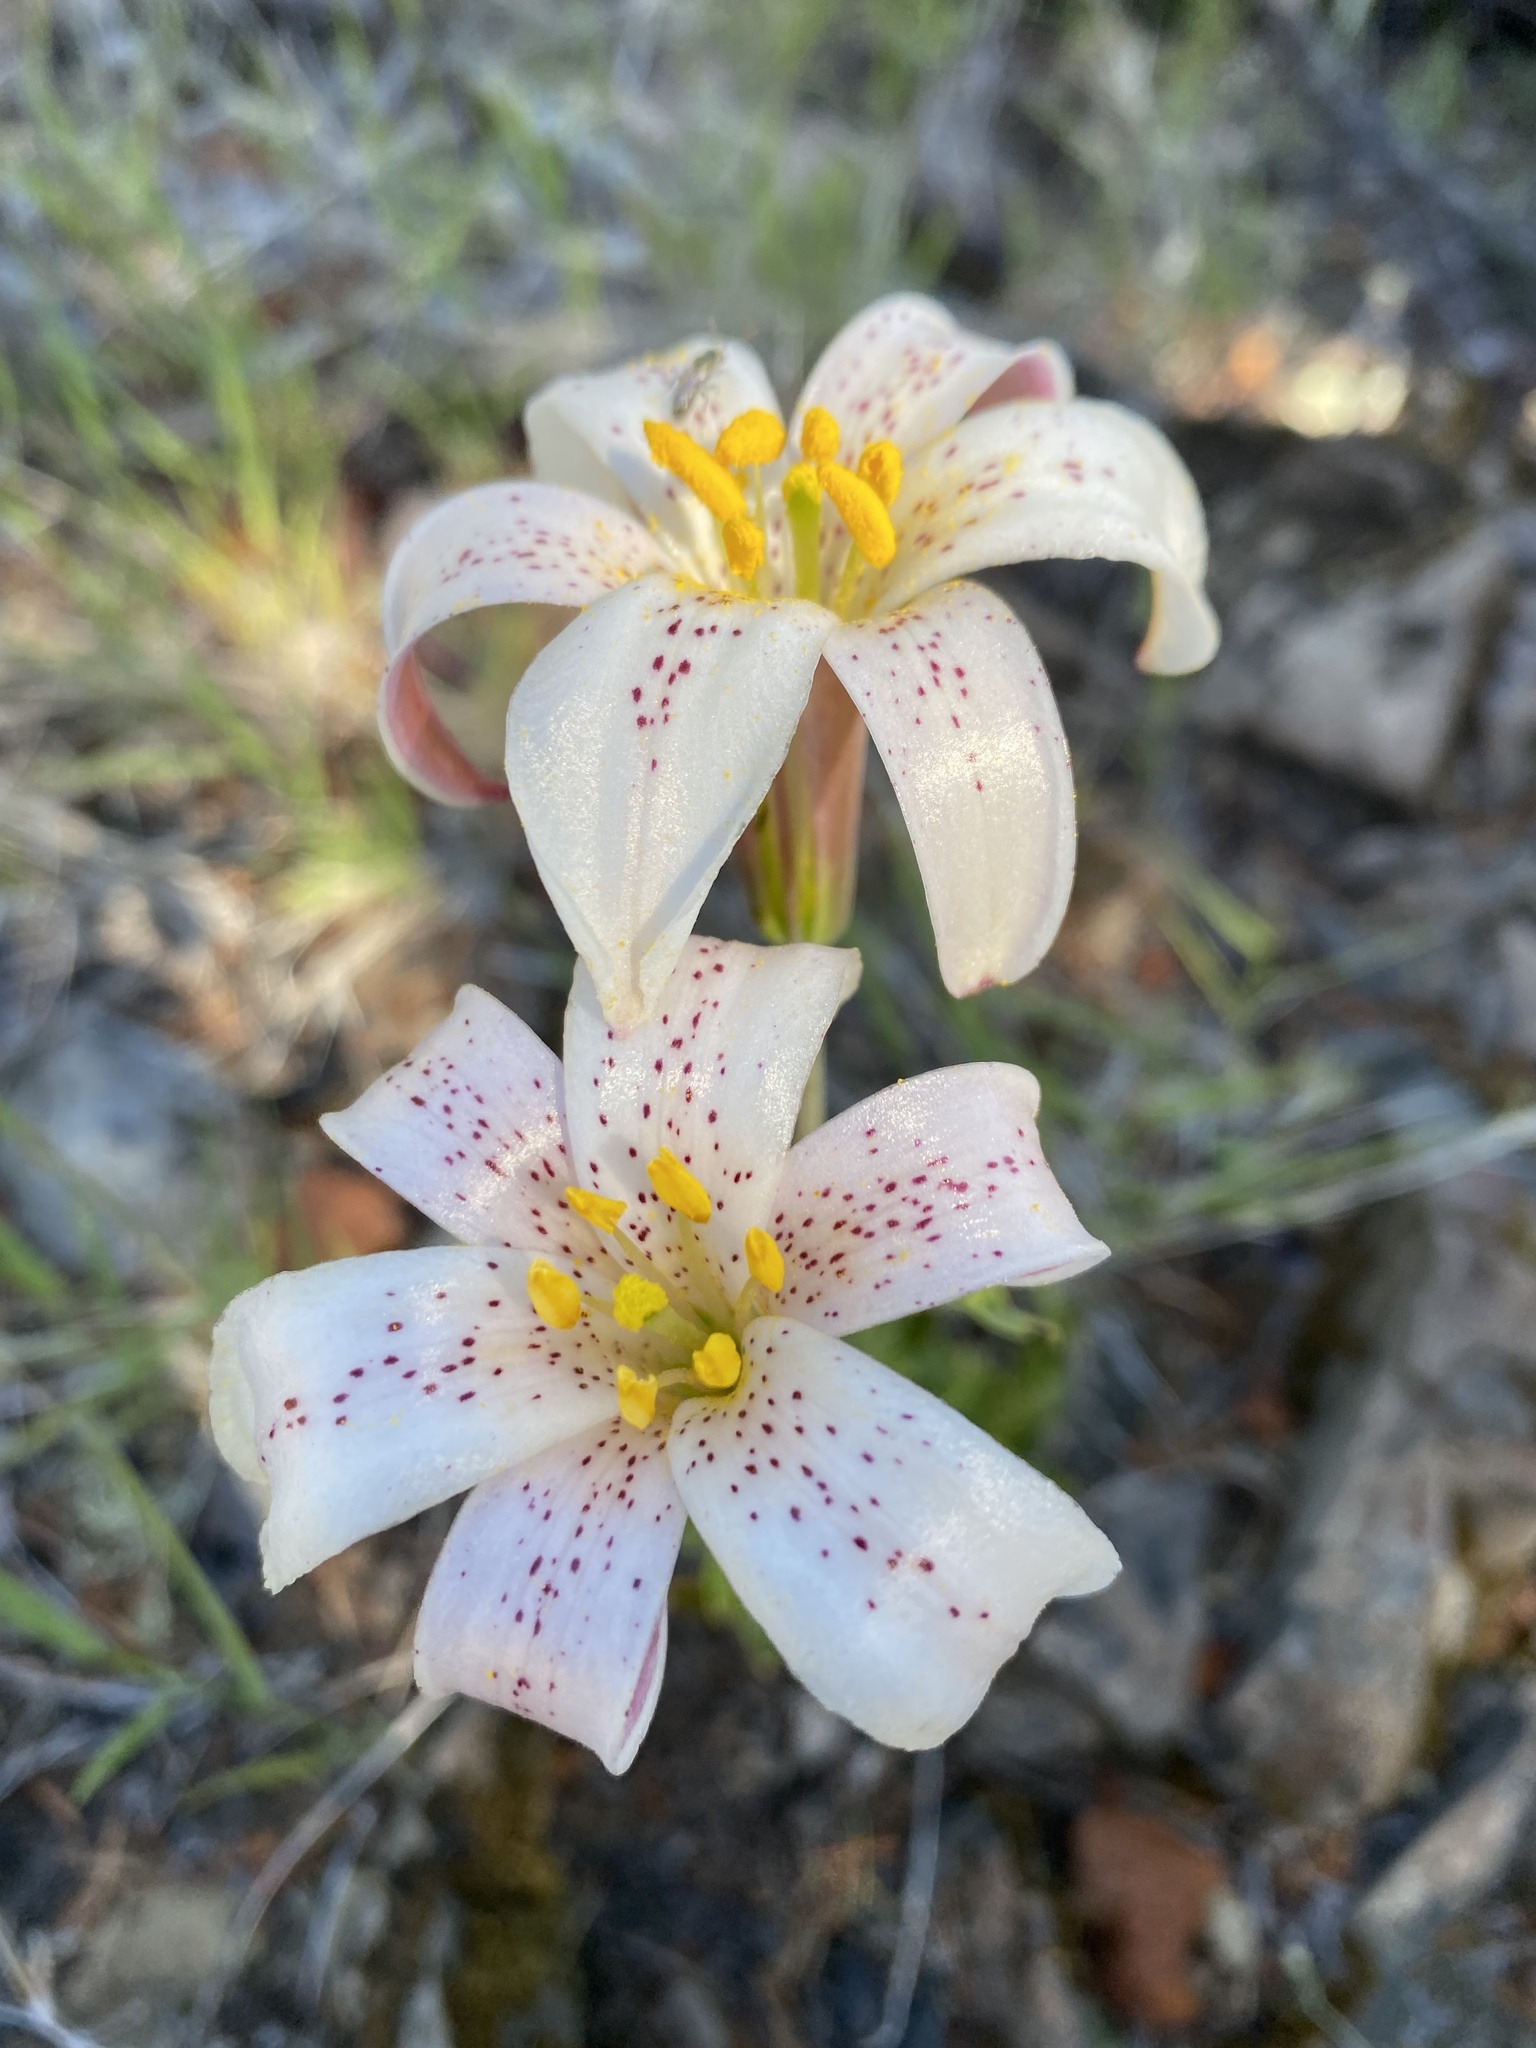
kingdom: Plantae
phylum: Tracheophyta
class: Liliopsida
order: Liliales
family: Liliaceae
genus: Lilium
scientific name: Lilium rubescens
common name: Chamise lily
